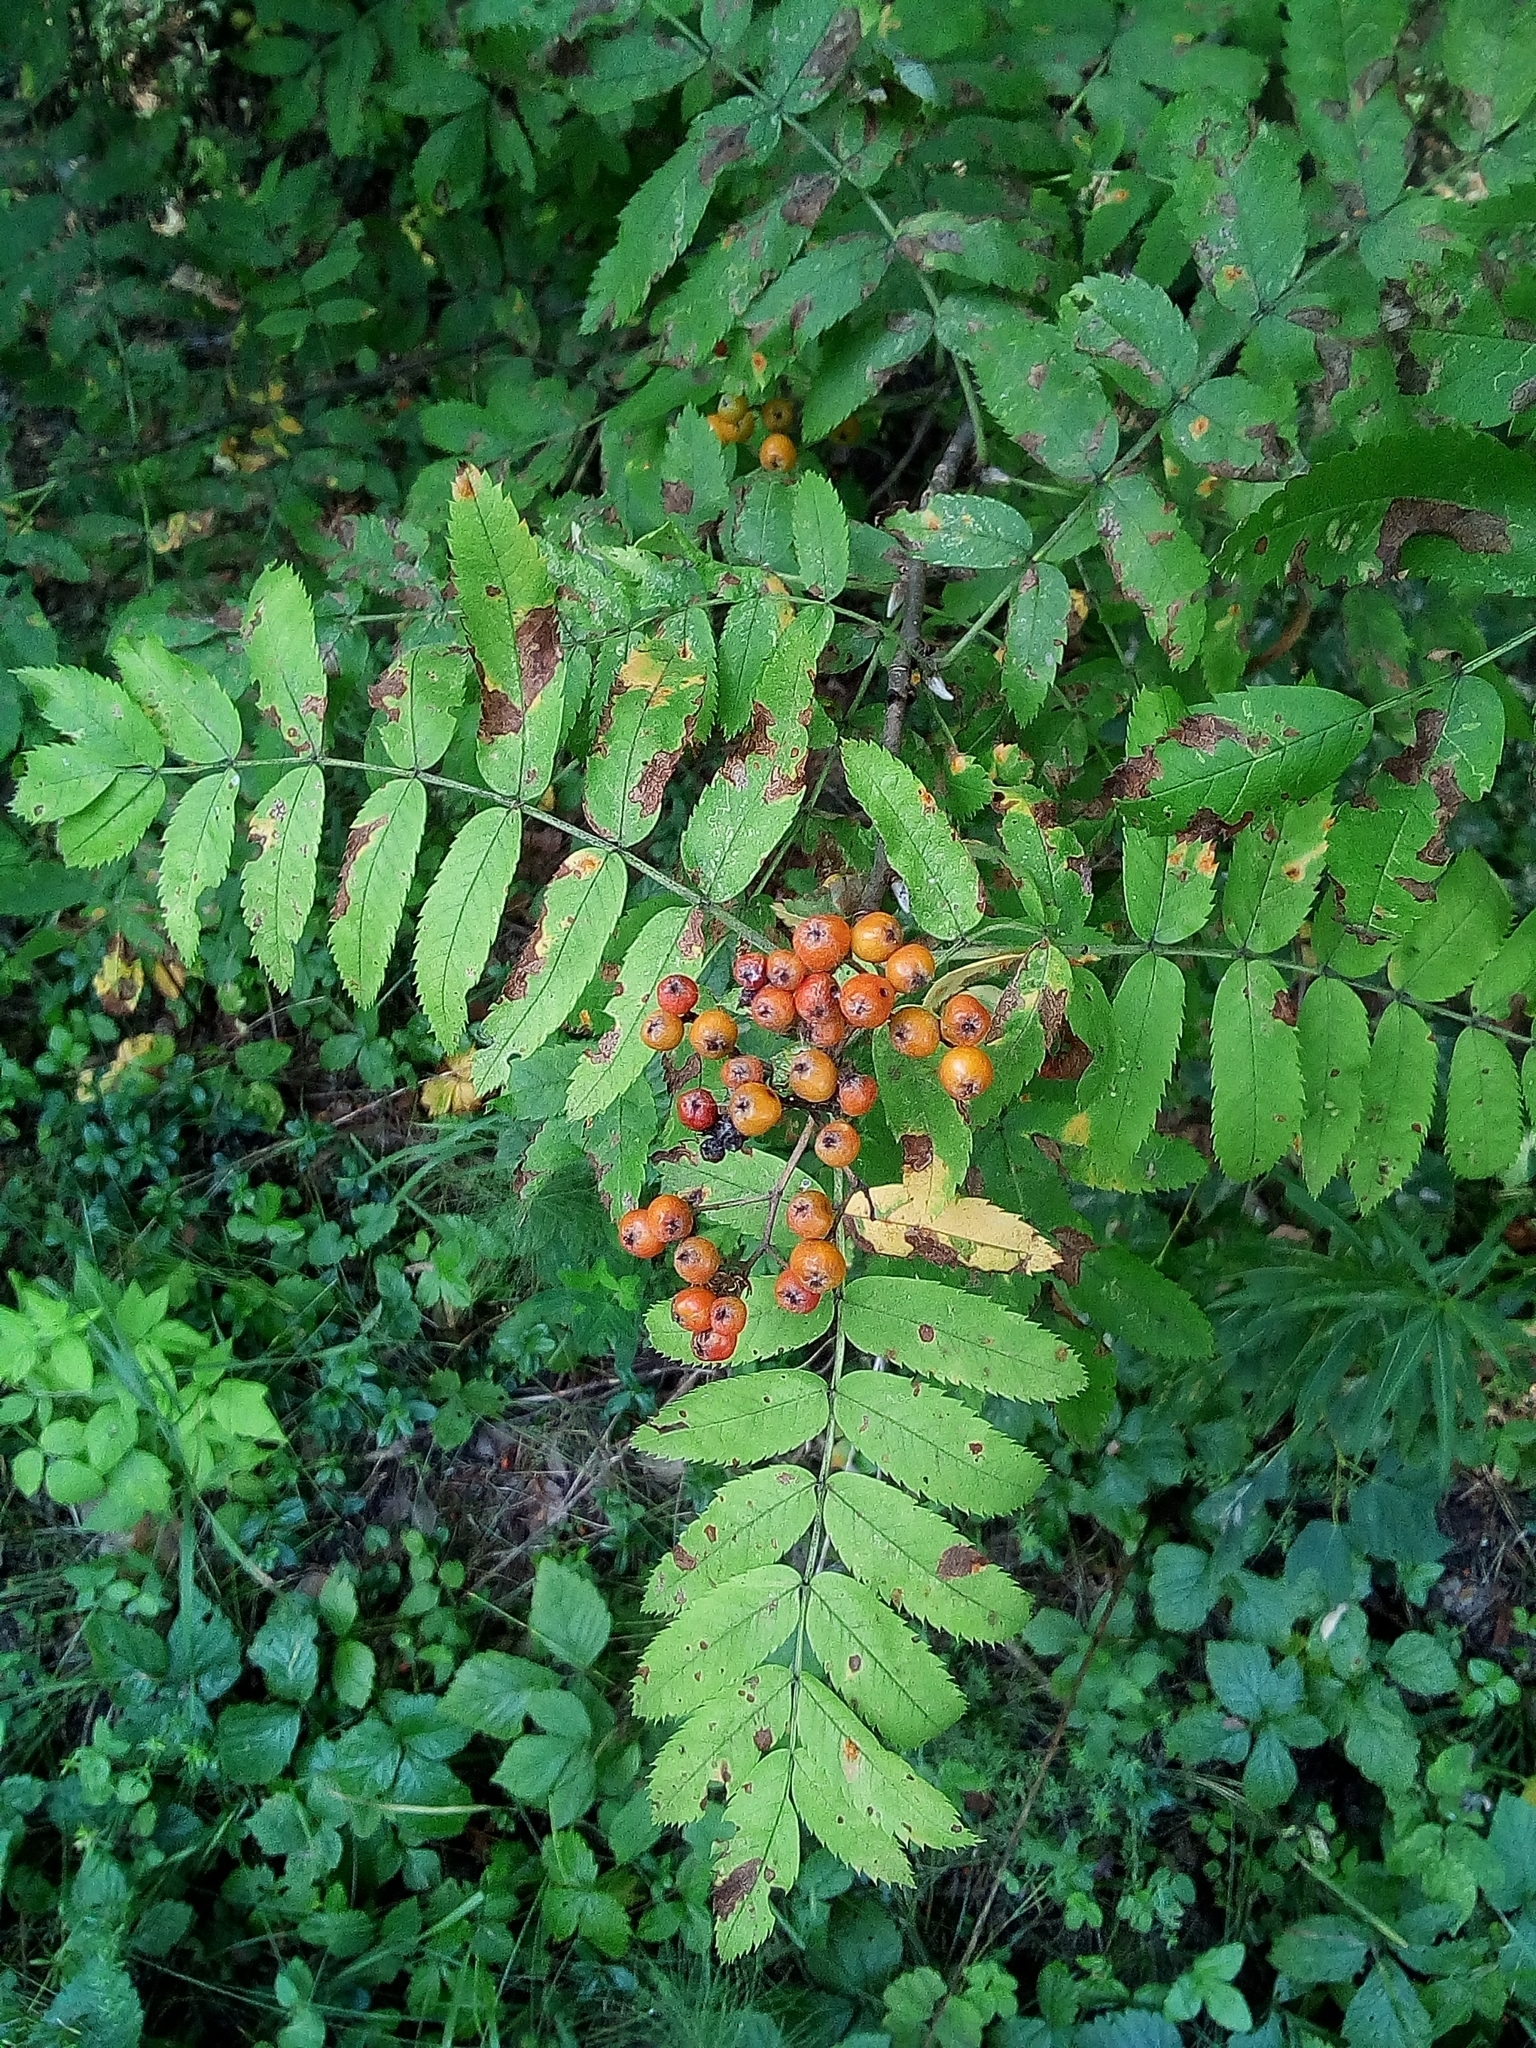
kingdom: Plantae
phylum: Tracheophyta
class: Magnoliopsida
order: Rosales
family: Rosaceae
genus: Sorbus
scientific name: Sorbus aucuparia
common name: Rowan
